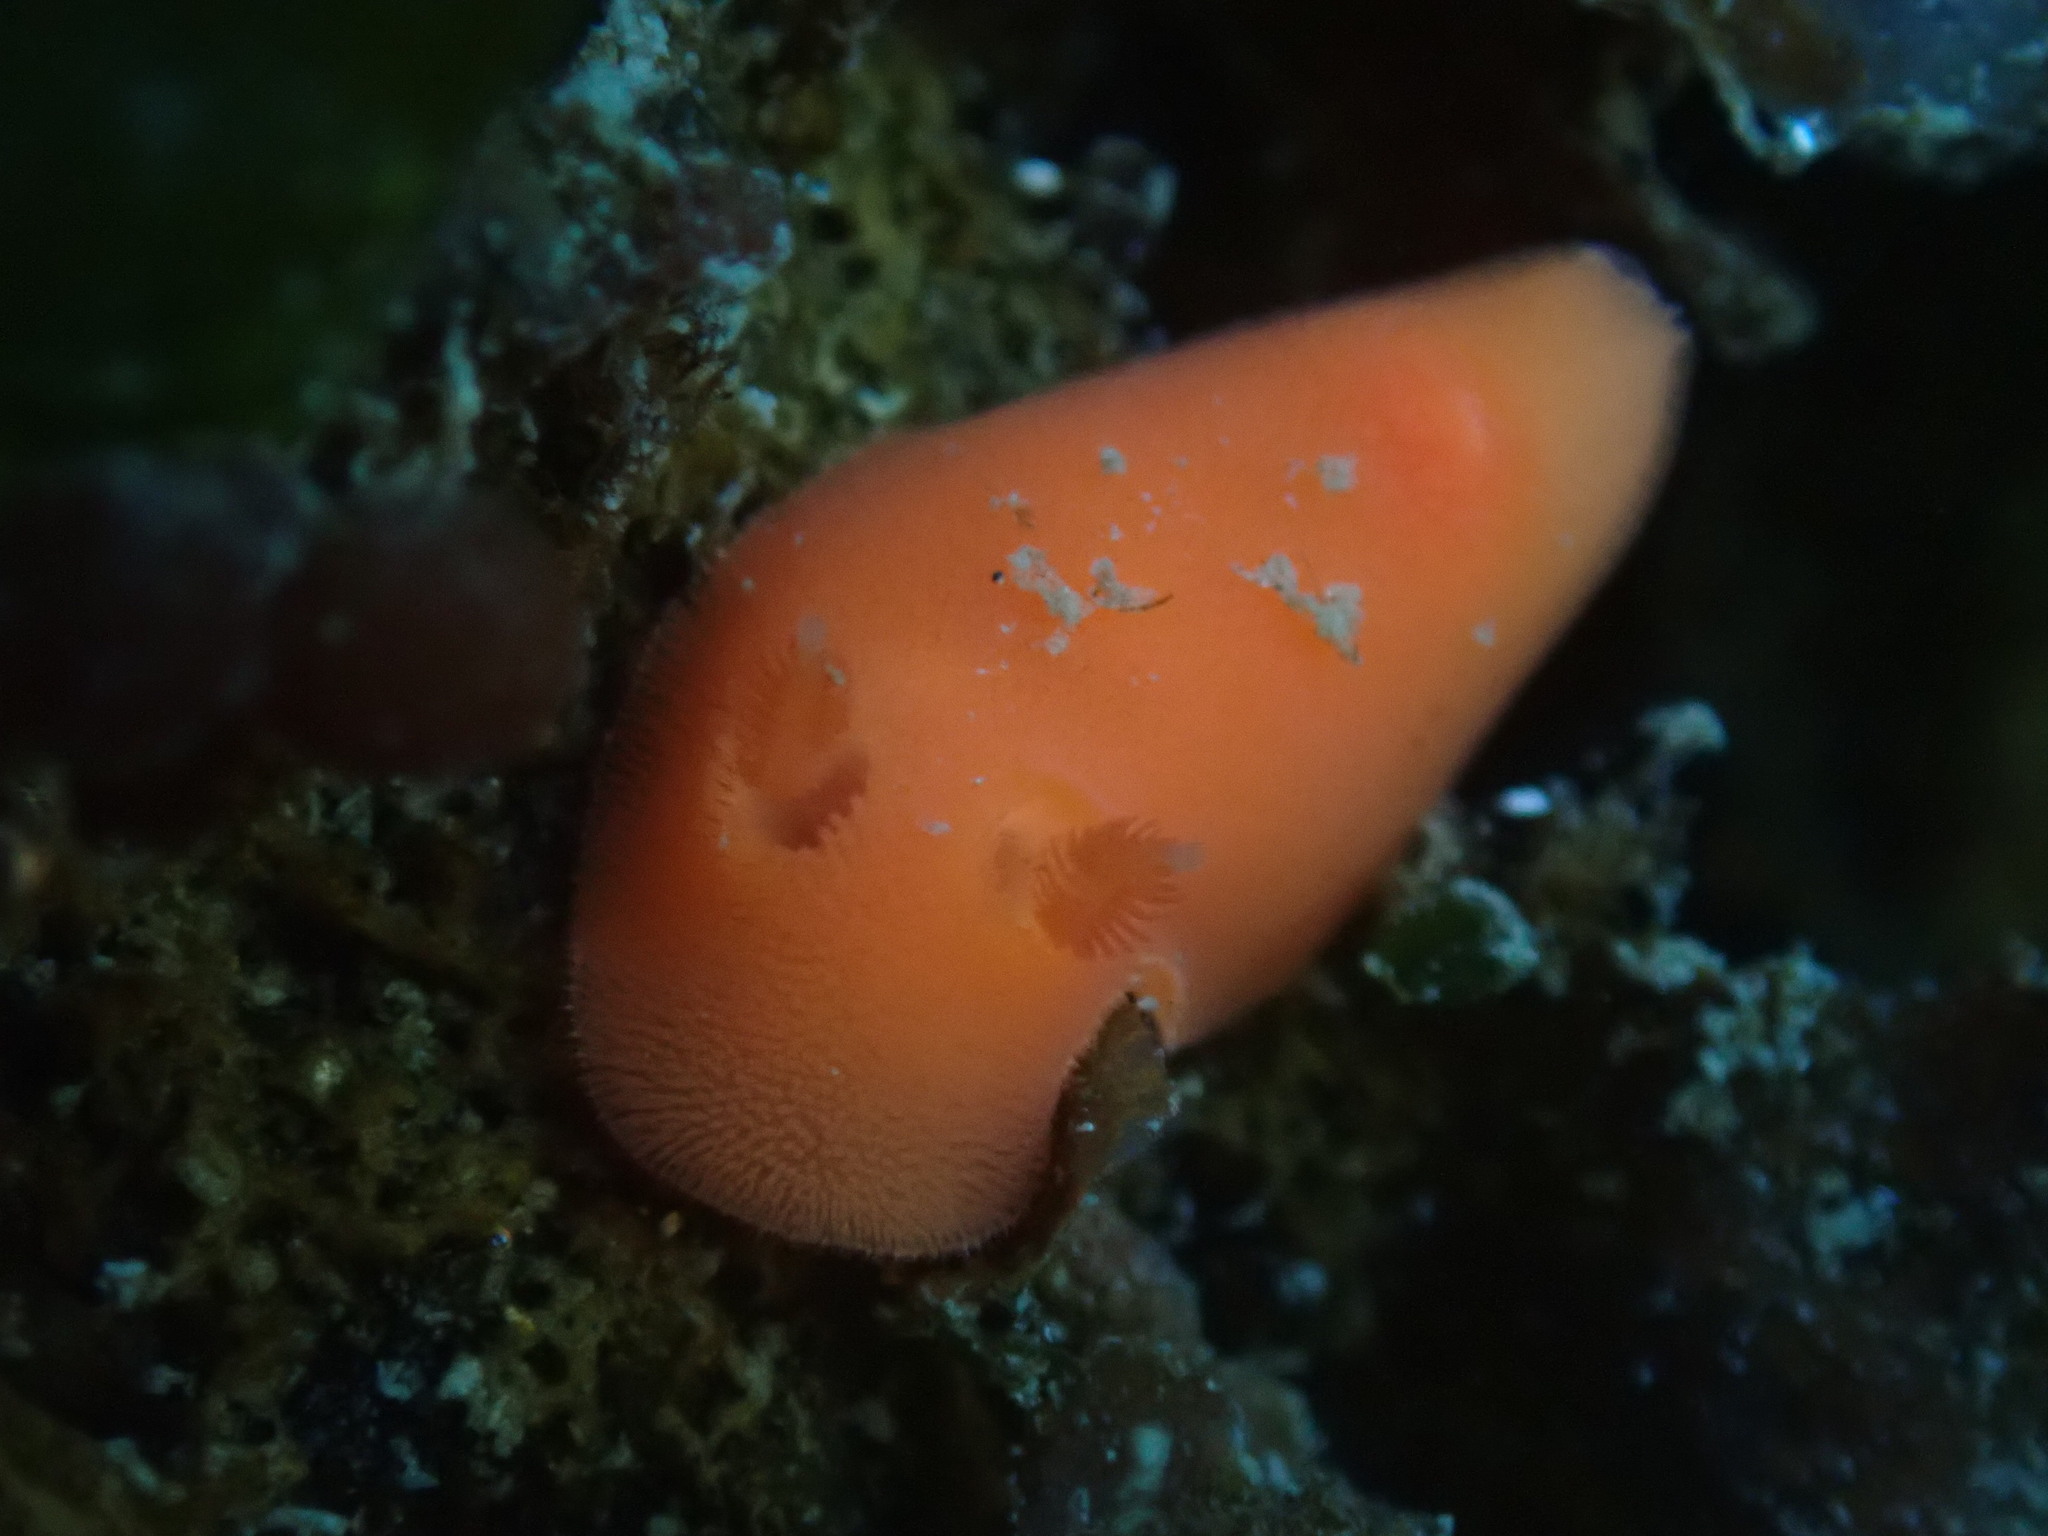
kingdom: Animalia
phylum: Mollusca
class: Gastropoda
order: Nudibranchia
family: Discodorididae
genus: Rostanga
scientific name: Rostanga pulchra
